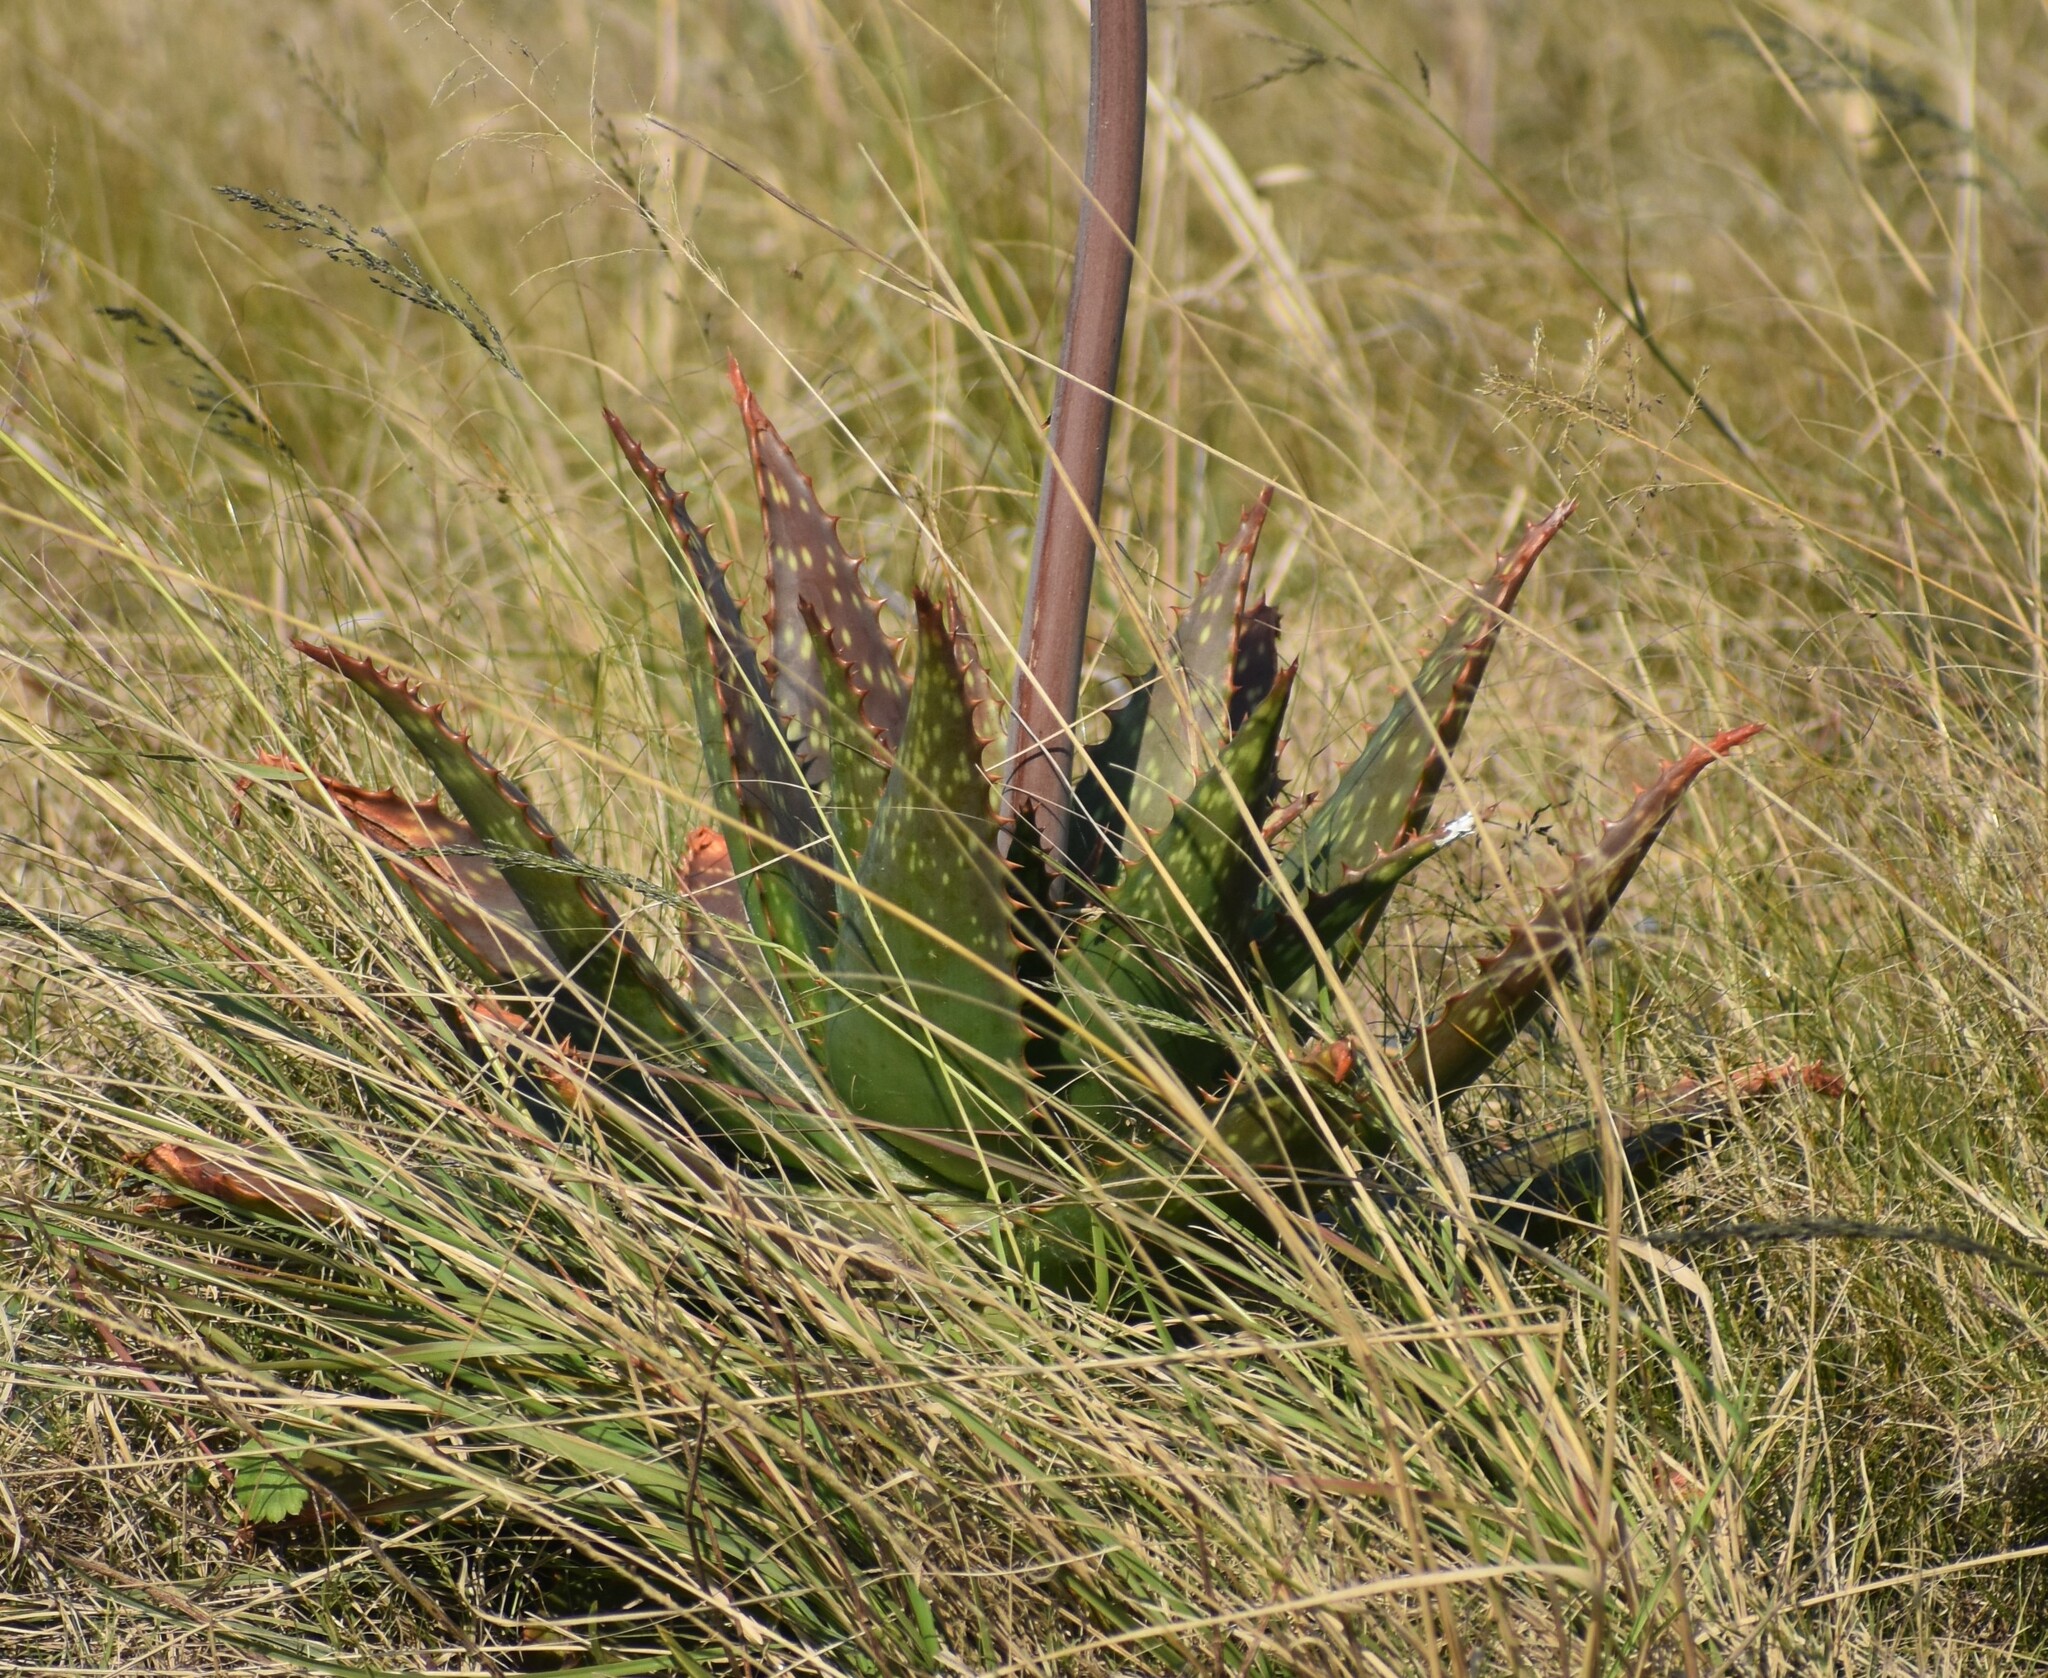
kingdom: Plantae
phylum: Tracheophyta
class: Liliopsida
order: Asparagales
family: Asphodelaceae
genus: Aloe
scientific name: Aloe maculata
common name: Broadleaf aloe
